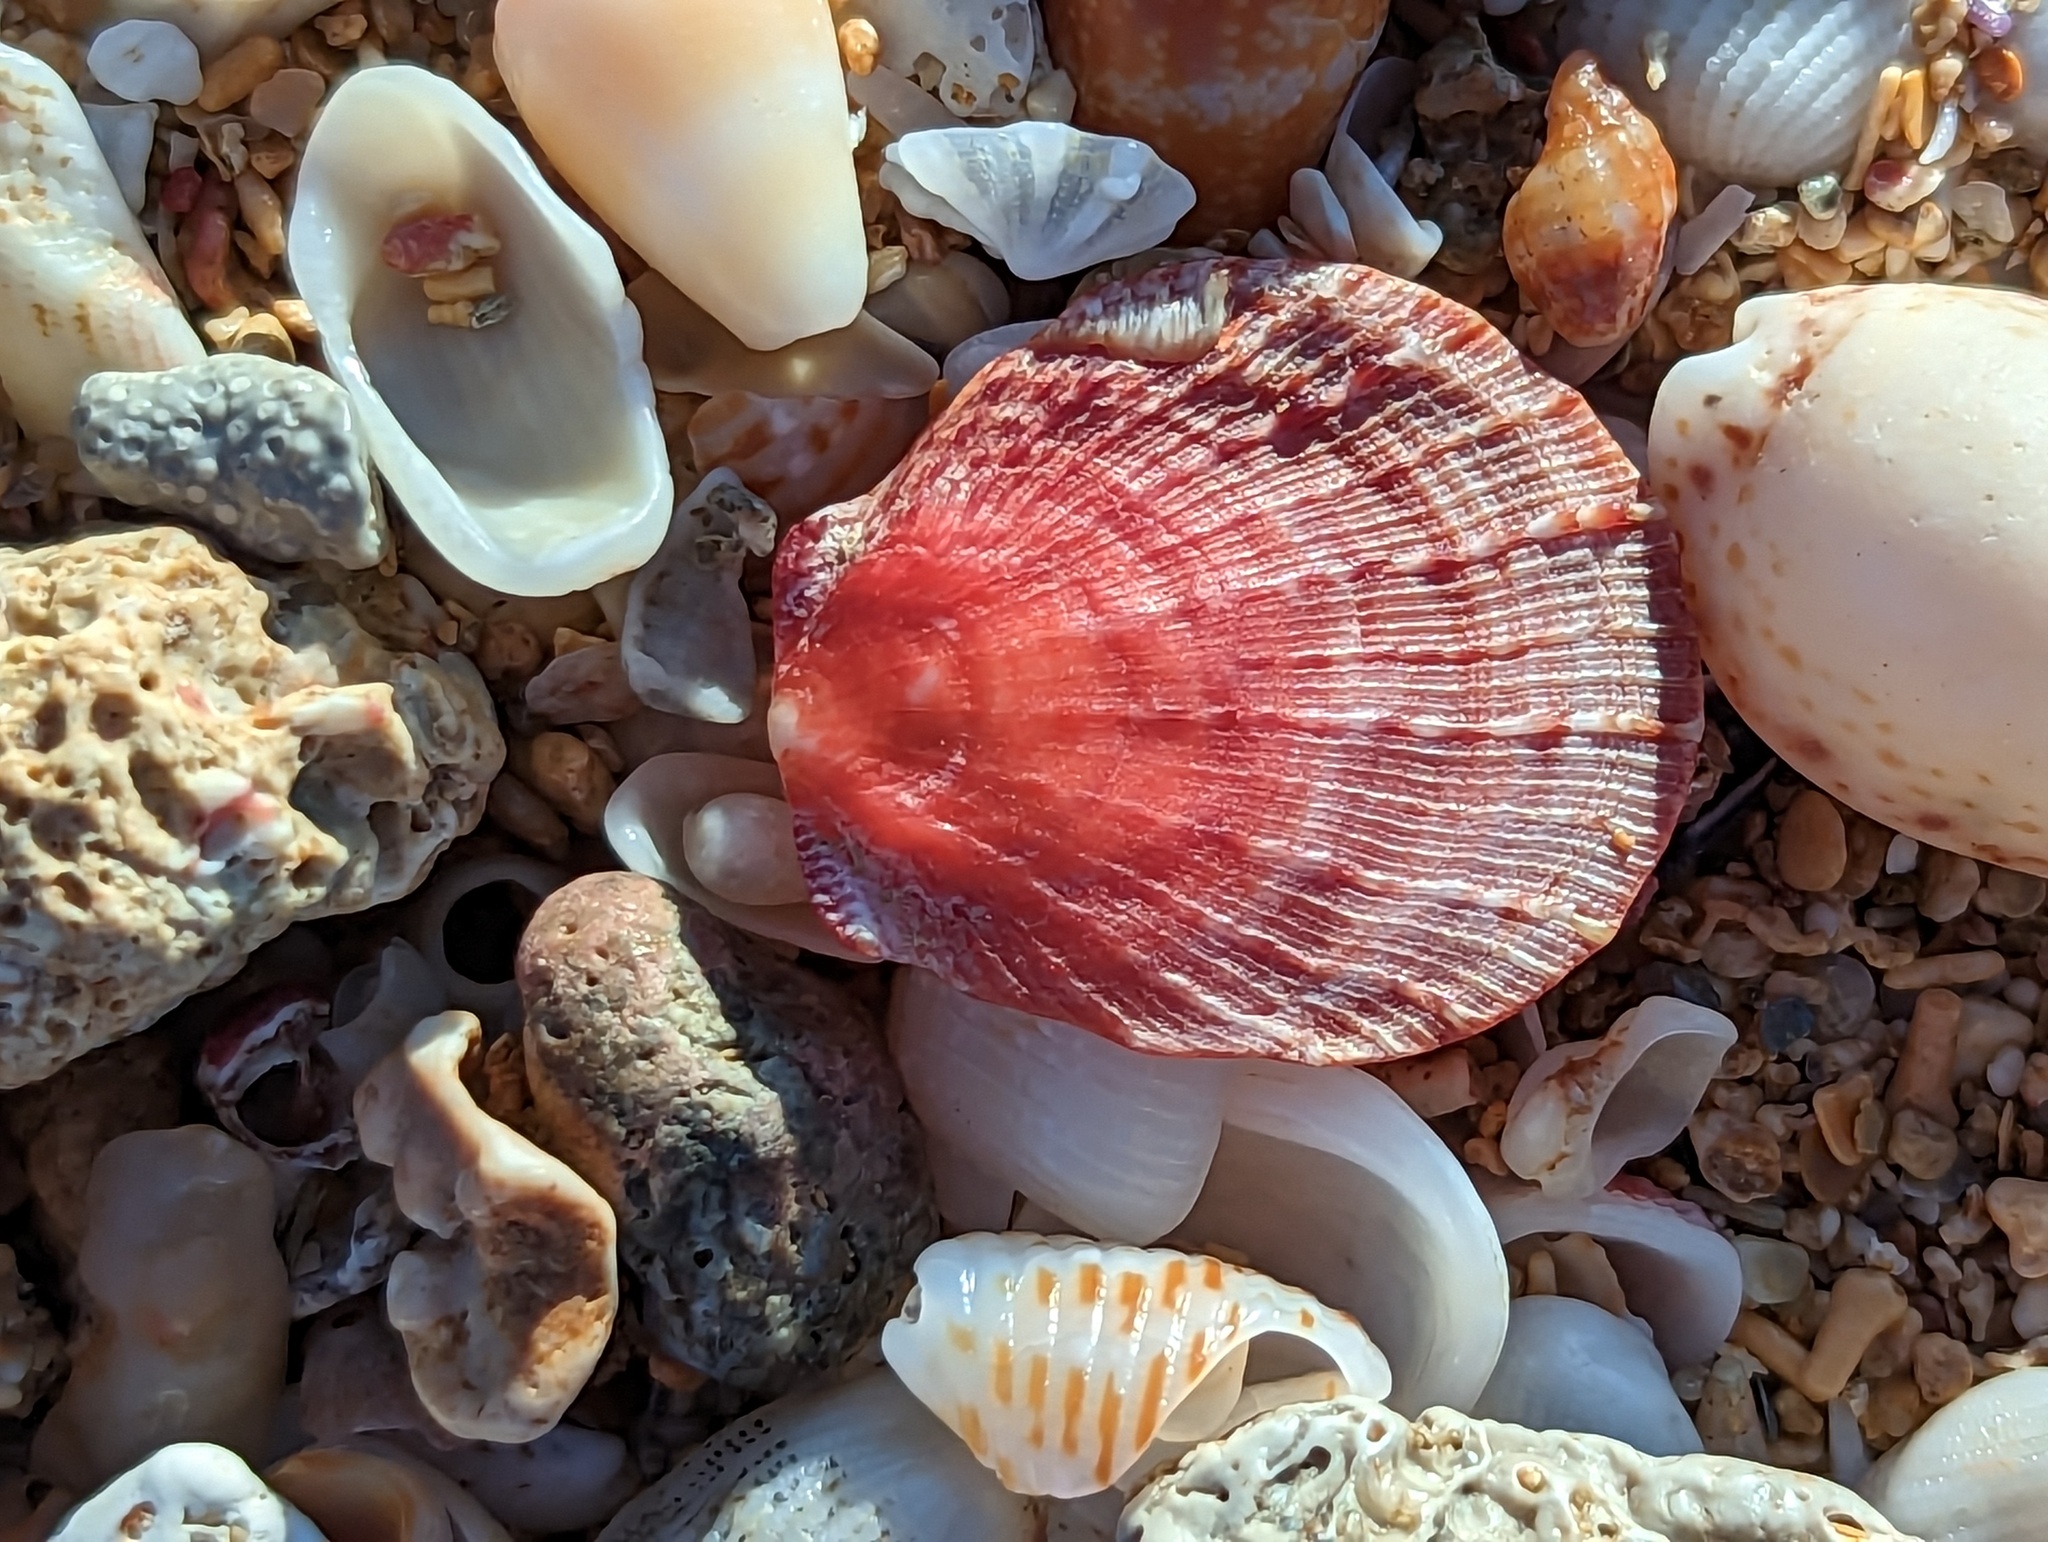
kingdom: Animalia
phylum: Mollusca
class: Bivalvia
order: Pectinida
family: Spondylidae
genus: Spondylus
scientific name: Spondylus tenuis
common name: Digitate thorny oyster
